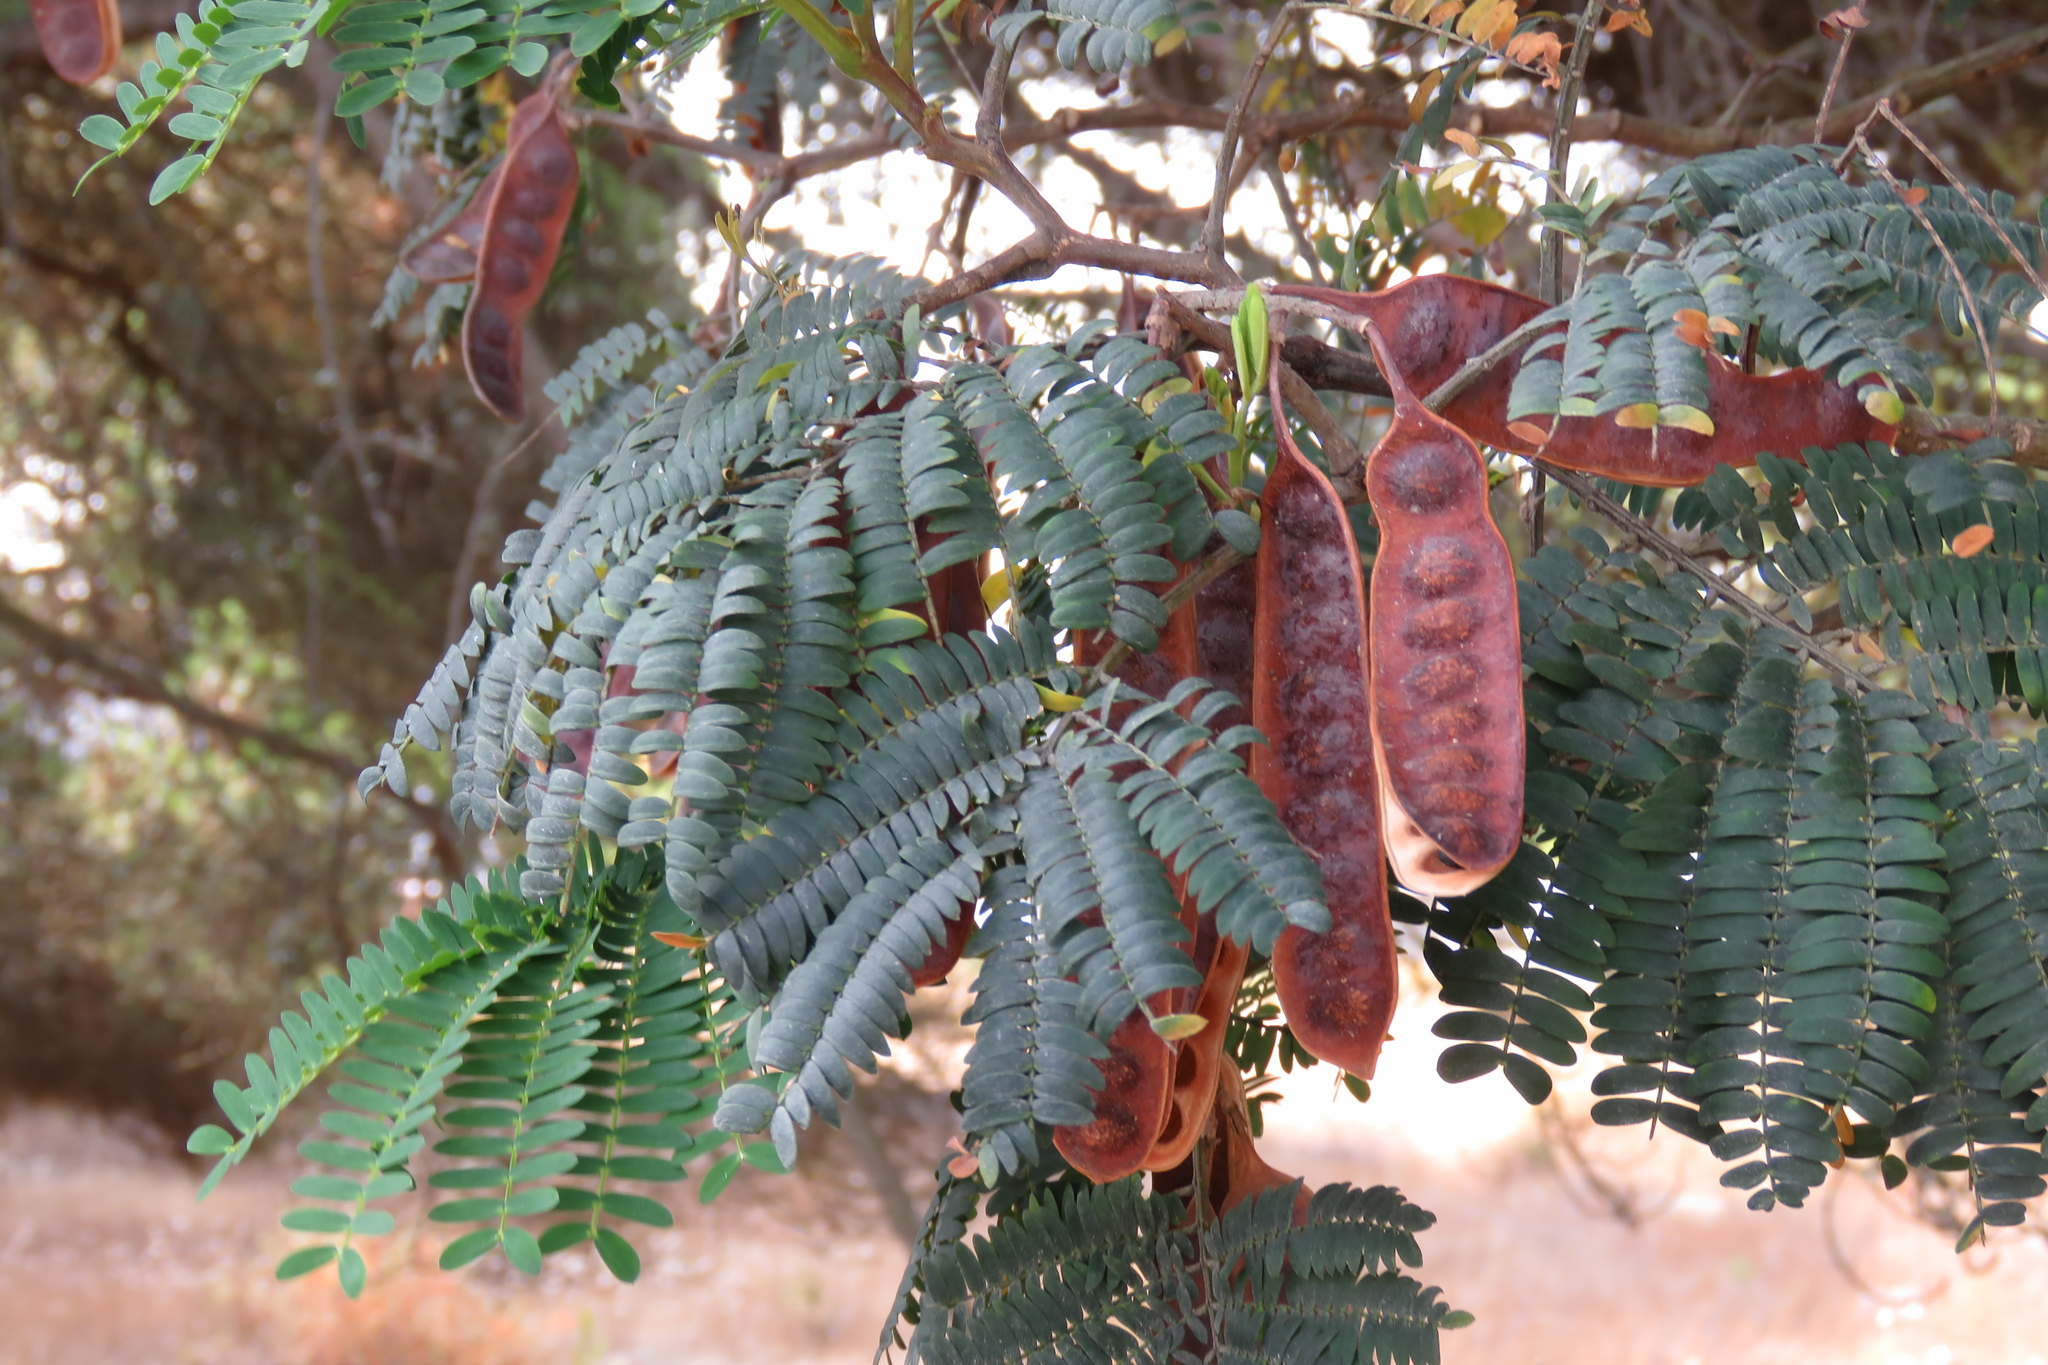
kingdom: Plantae
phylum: Tracheophyta
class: Magnoliopsida
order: Fabales
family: Fabaceae
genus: Paraserianthes
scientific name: Paraserianthes lophantha
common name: Plume albizia
